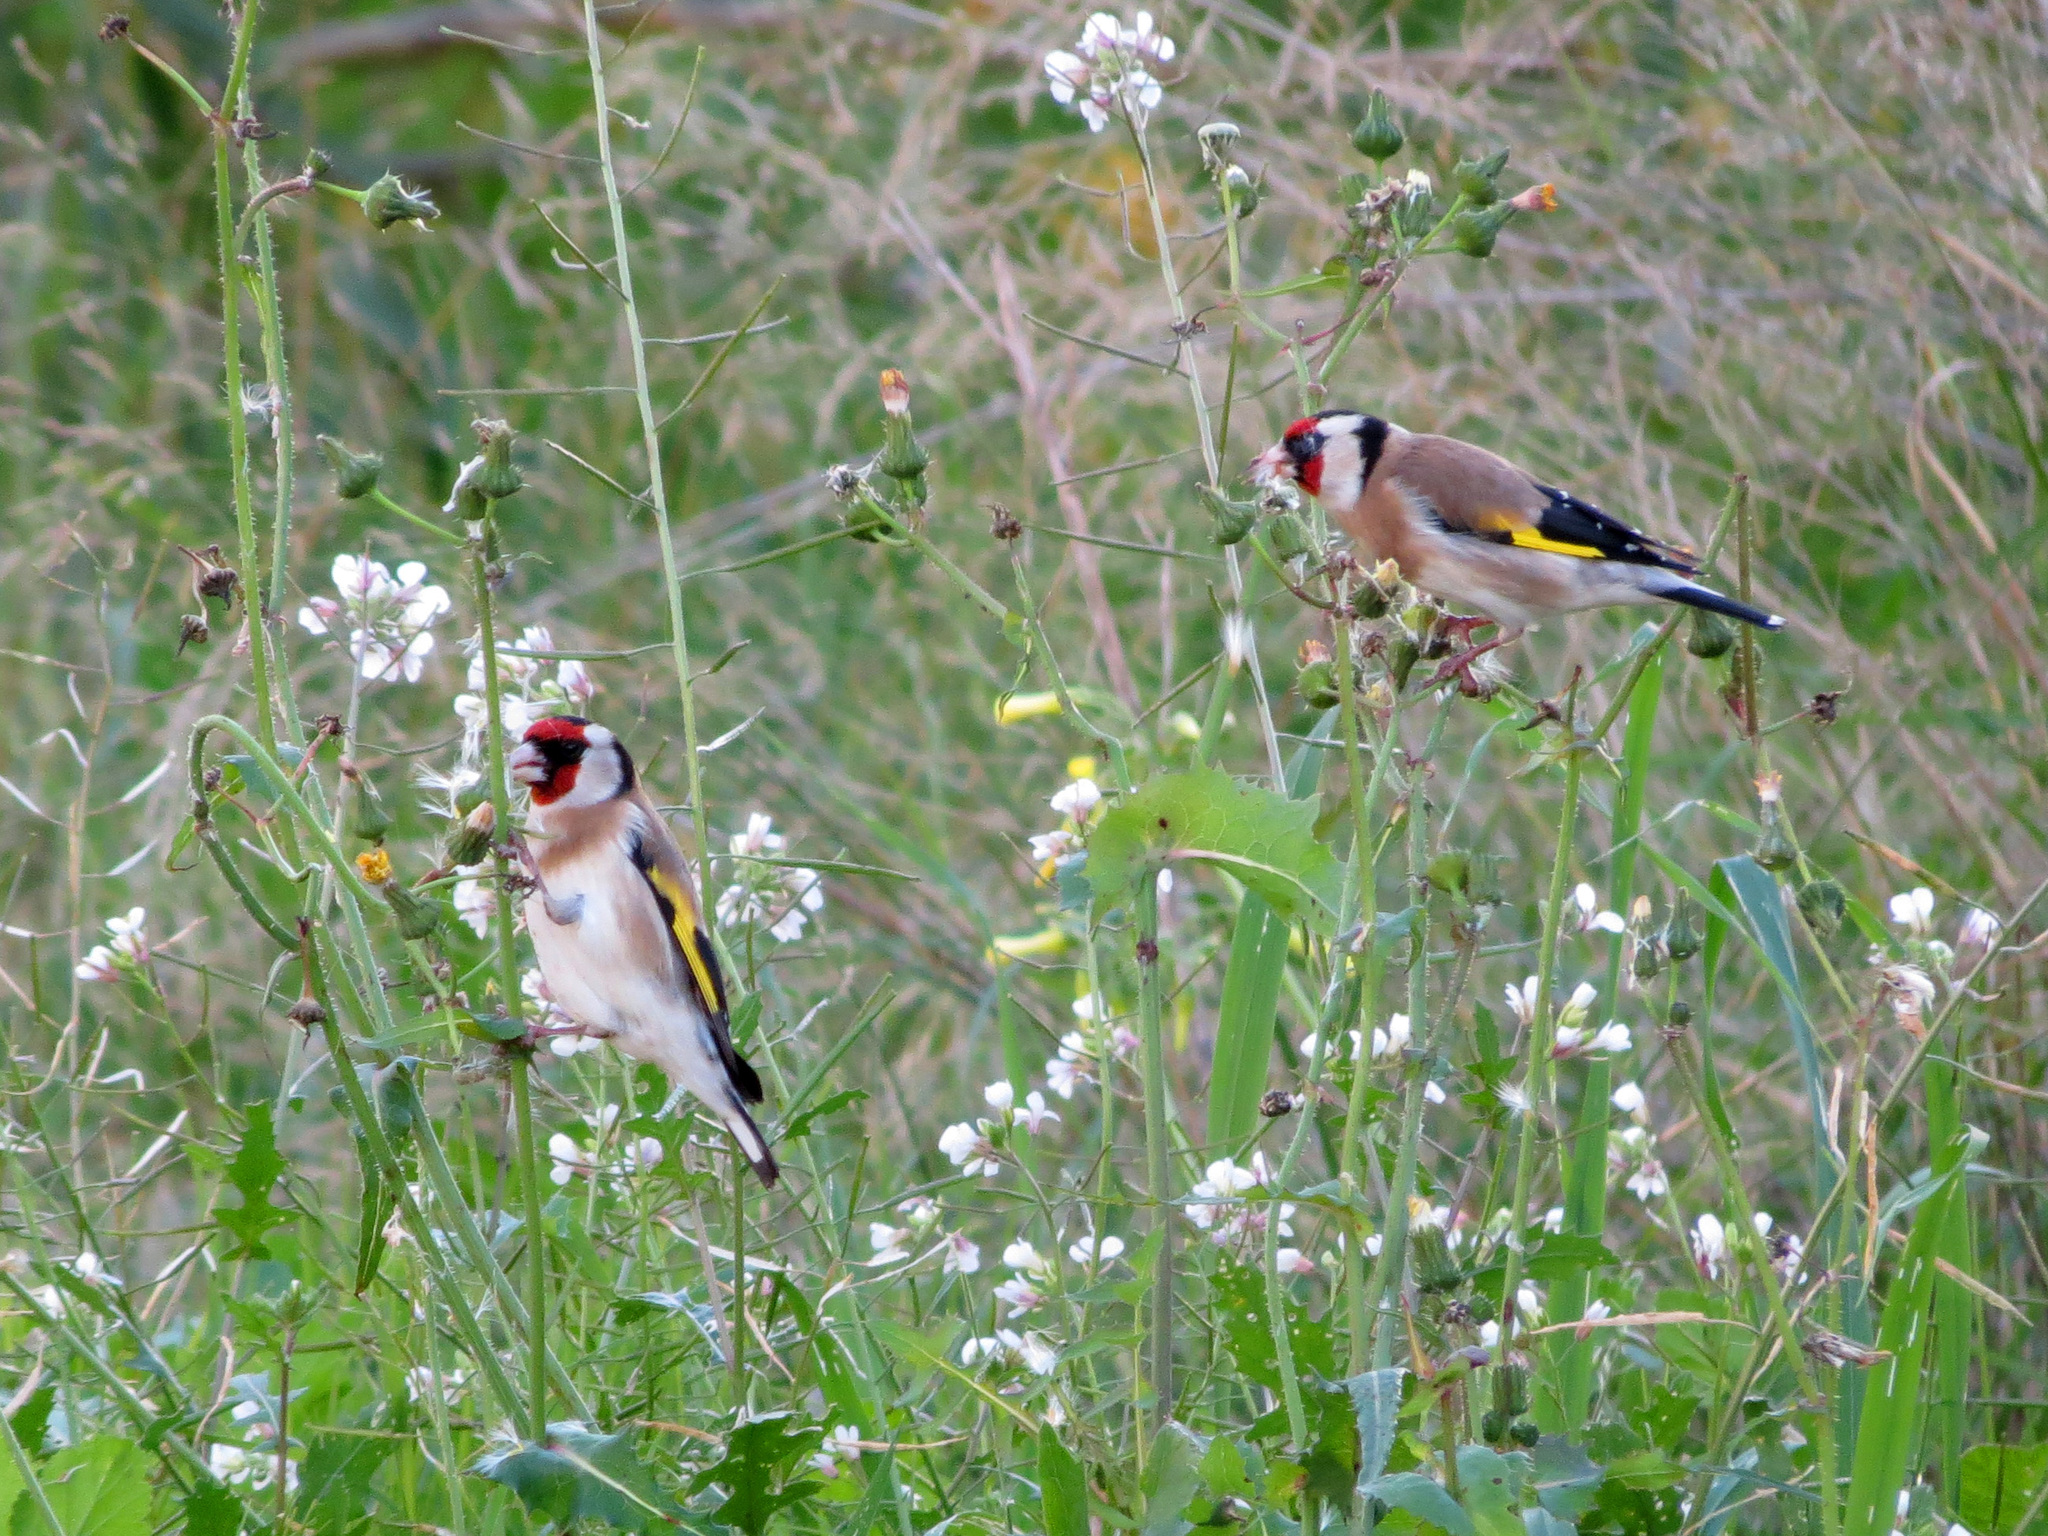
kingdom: Animalia
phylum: Chordata
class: Aves
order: Passeriformes
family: Fringillidae
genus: Carduelis
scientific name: Carduelis carduelis
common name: European goldfinch
